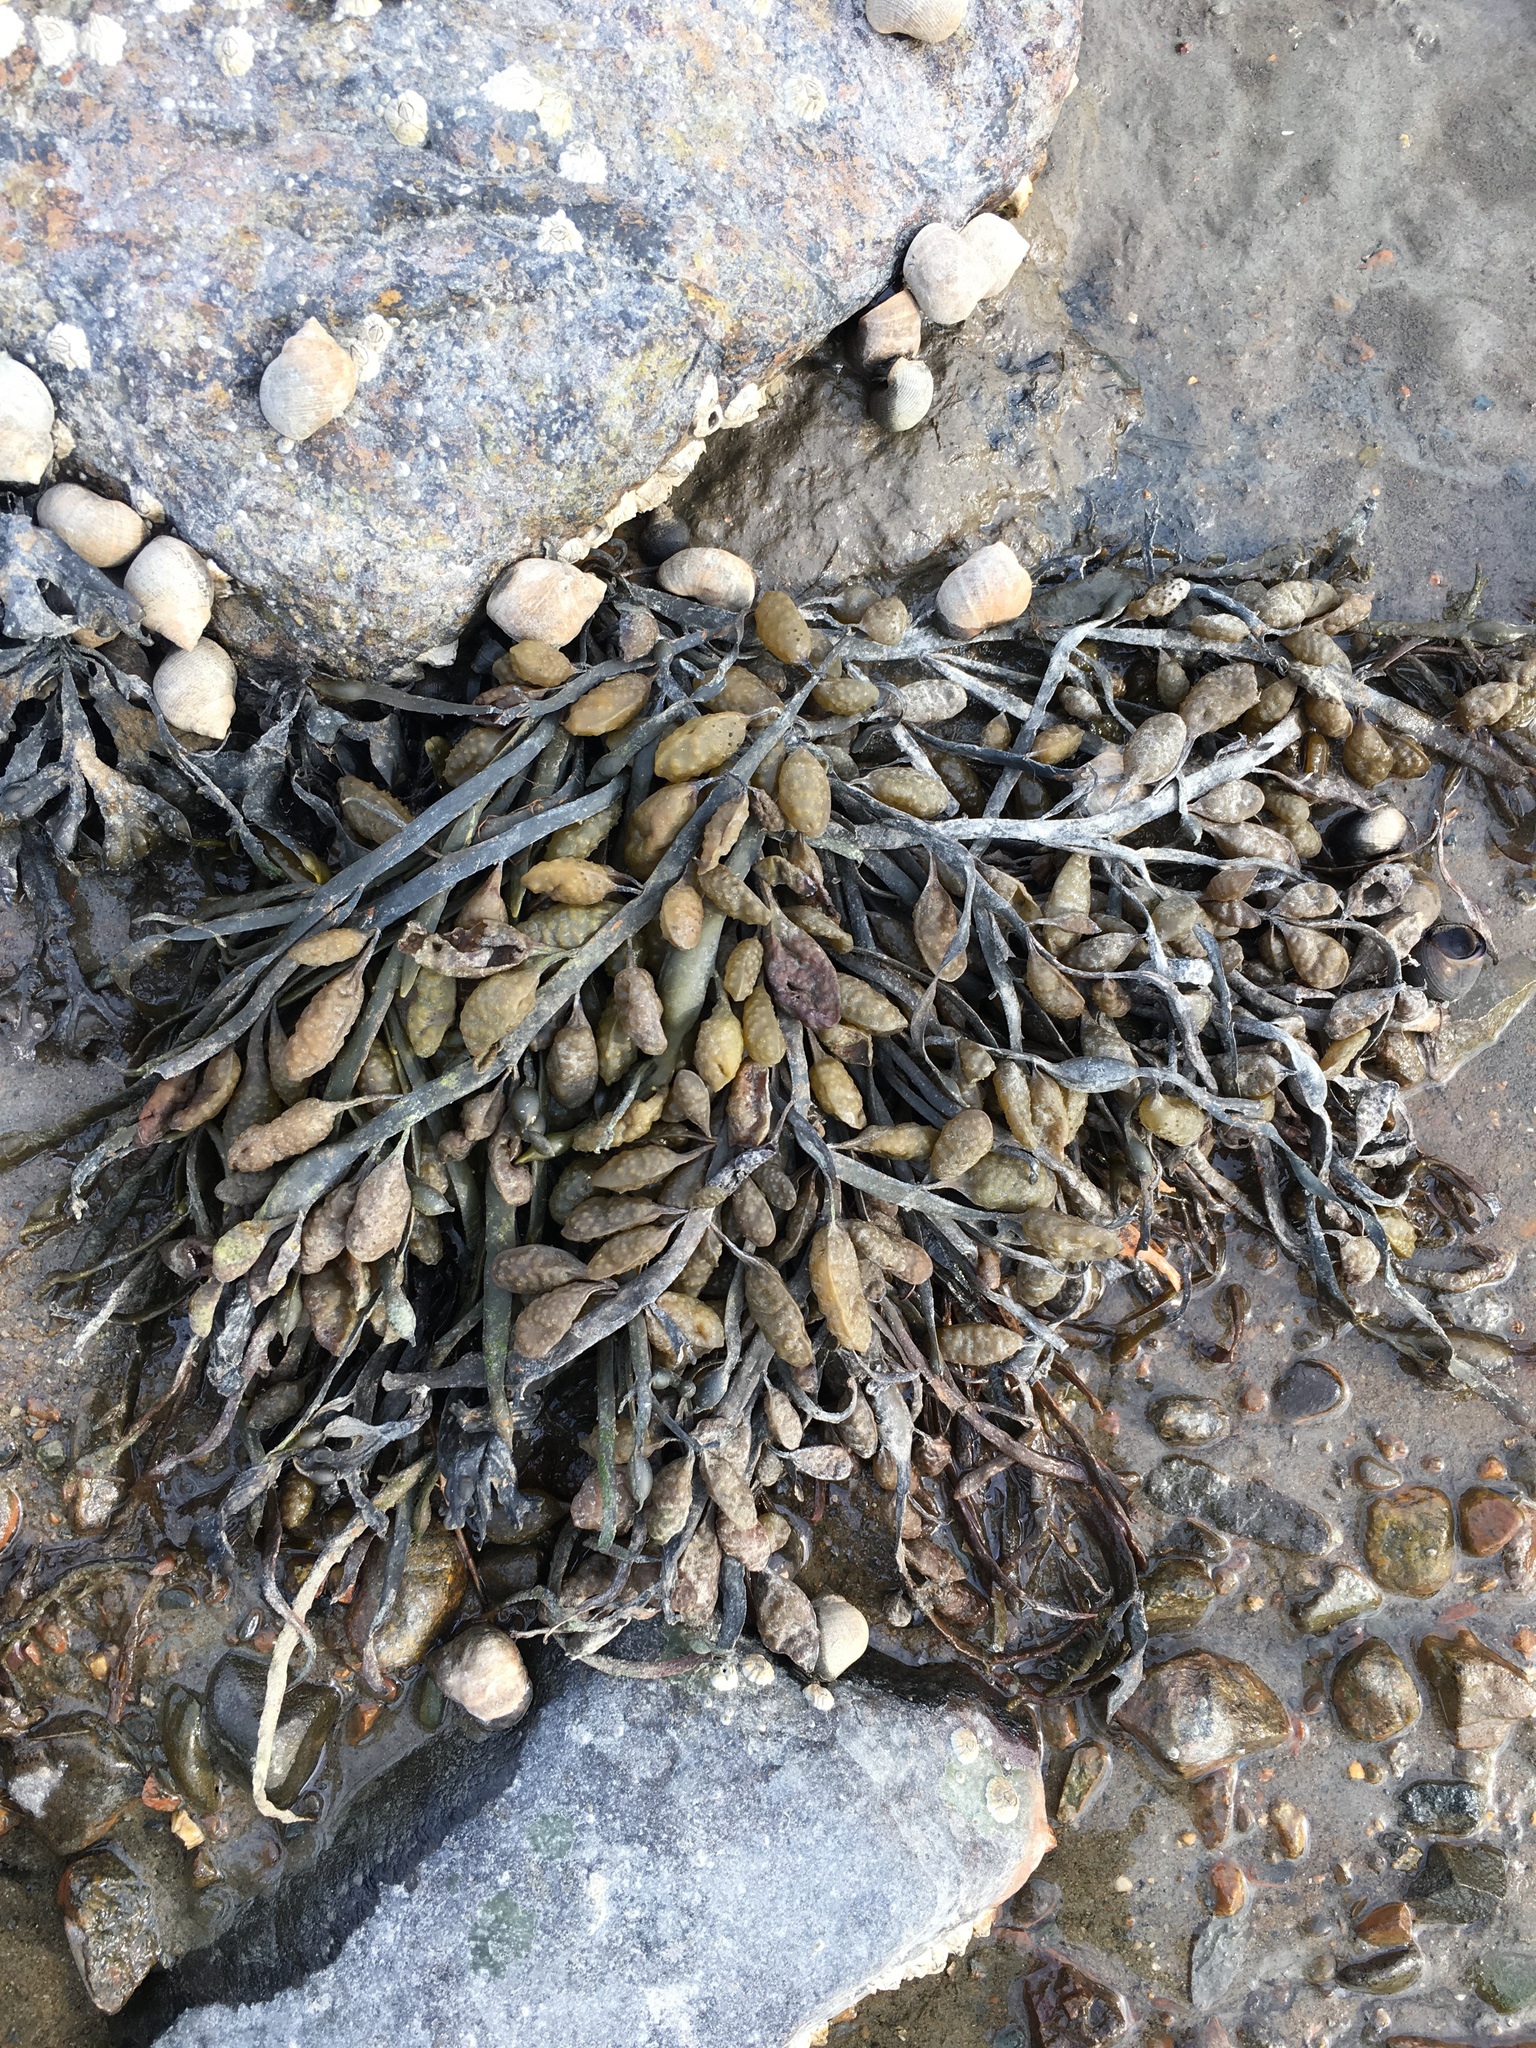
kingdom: Chromista
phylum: Ochrophyta
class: Phaeophyceae
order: Fucales
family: Fucaceae
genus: Ascophyllum
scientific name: Ascophyllum nodosum
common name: Knotted wrack
